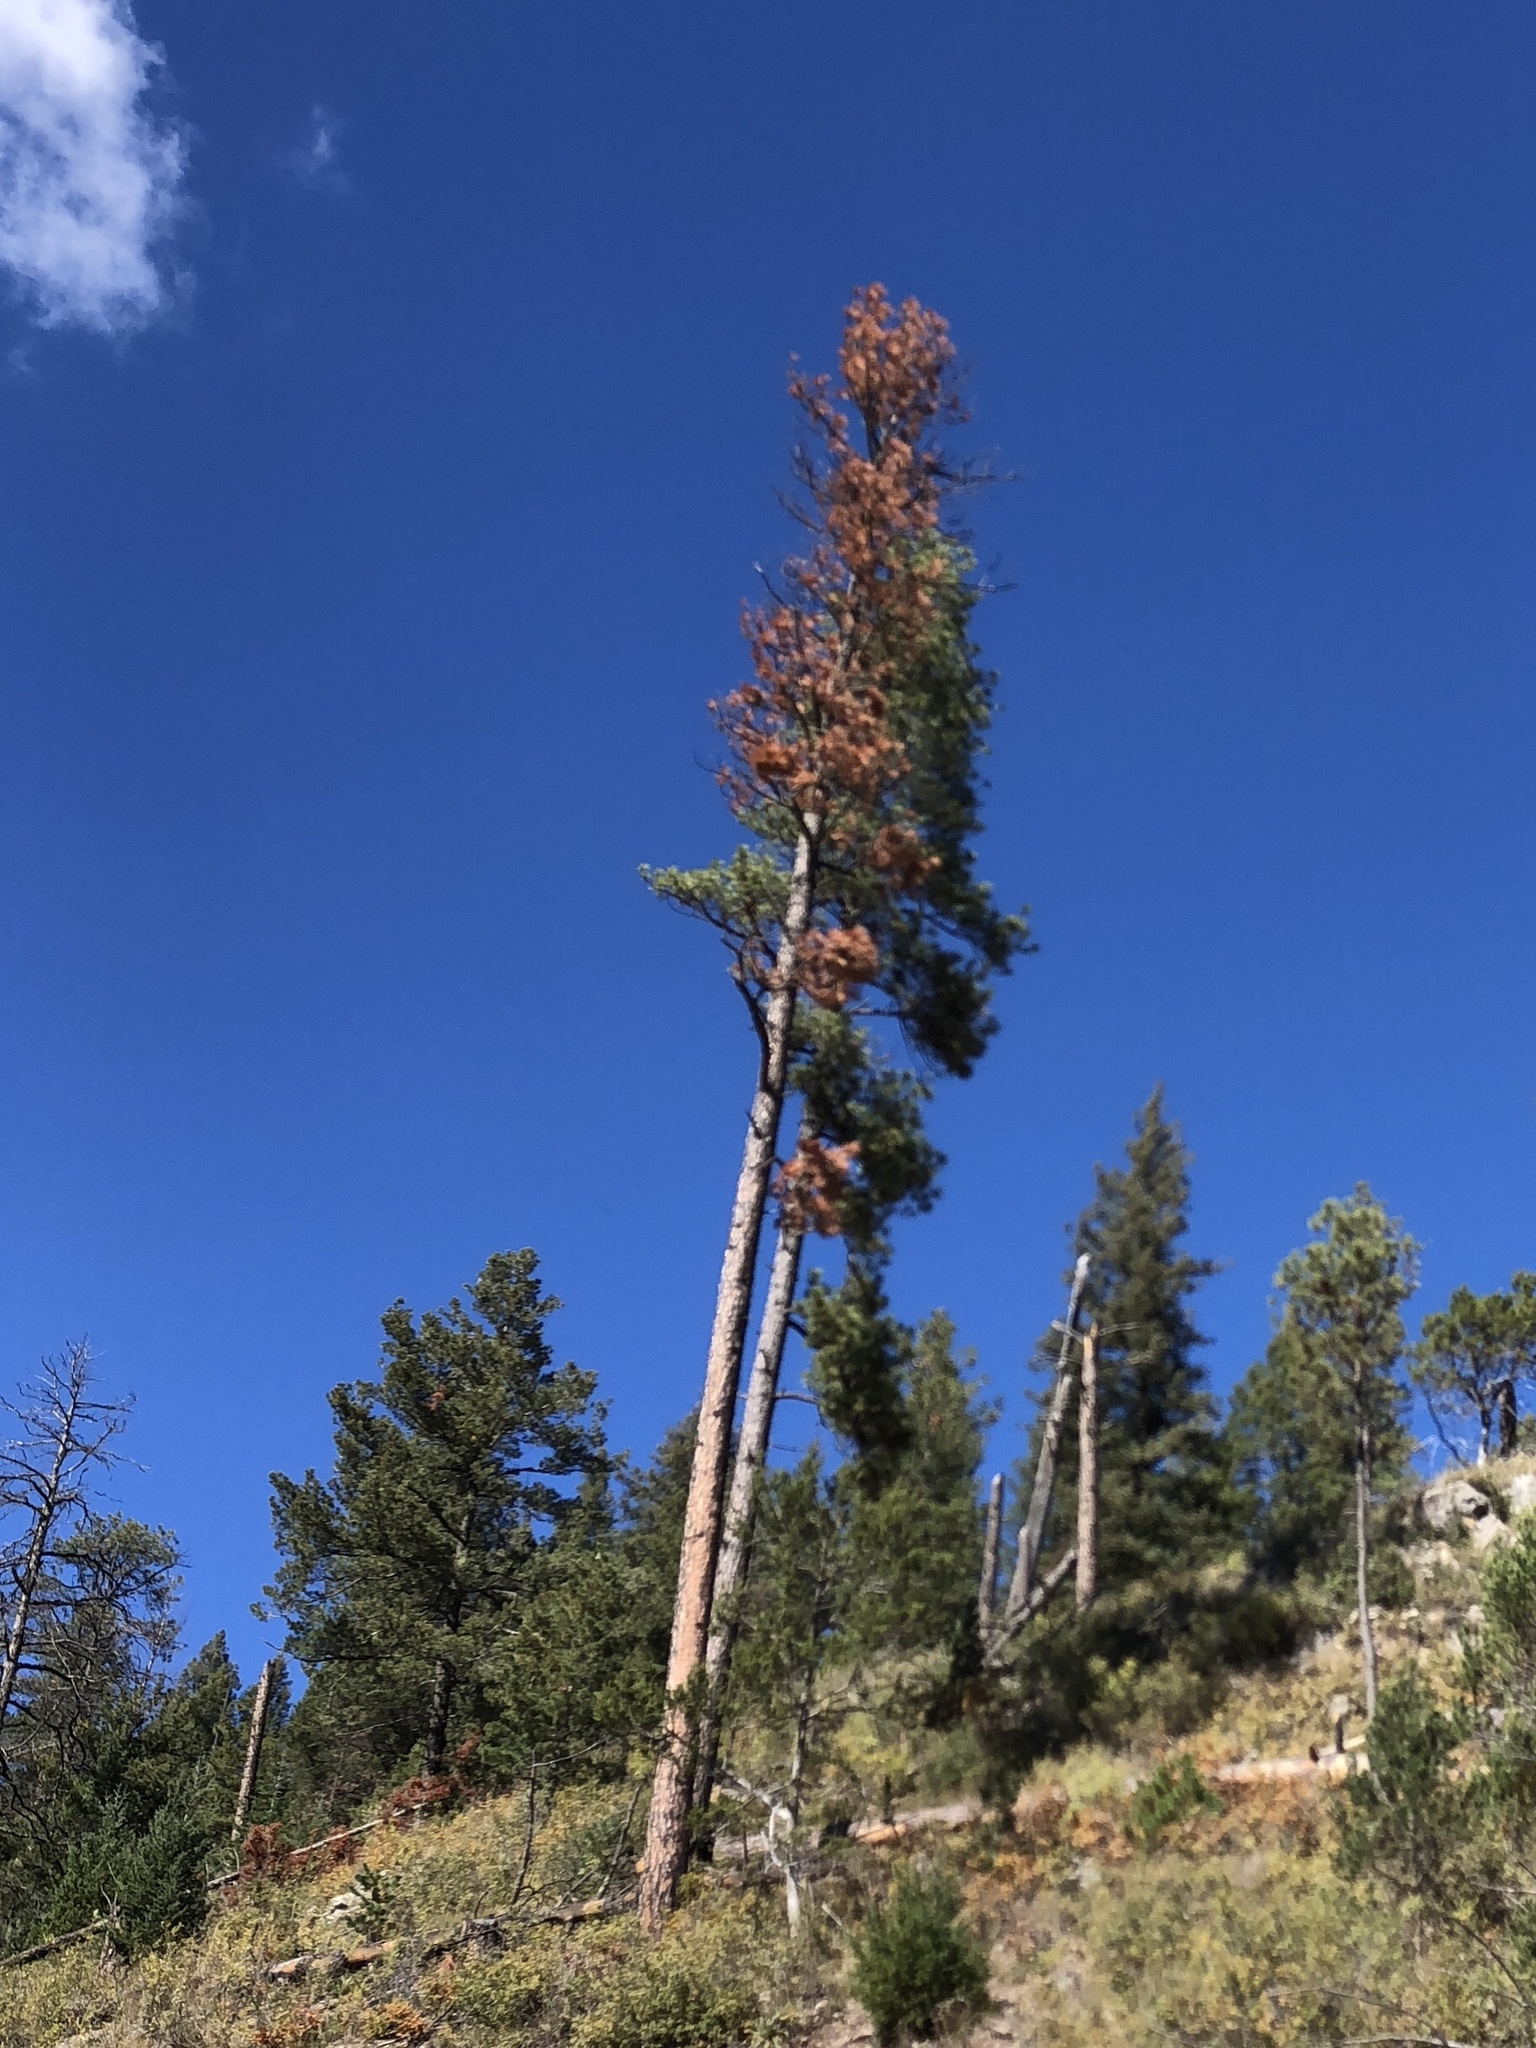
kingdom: Plantae
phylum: Tracheophyta
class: Pinopsida
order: Pinales
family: Pinaceae
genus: Pinus
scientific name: Pinus ponderosa
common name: Western yellow-pine
